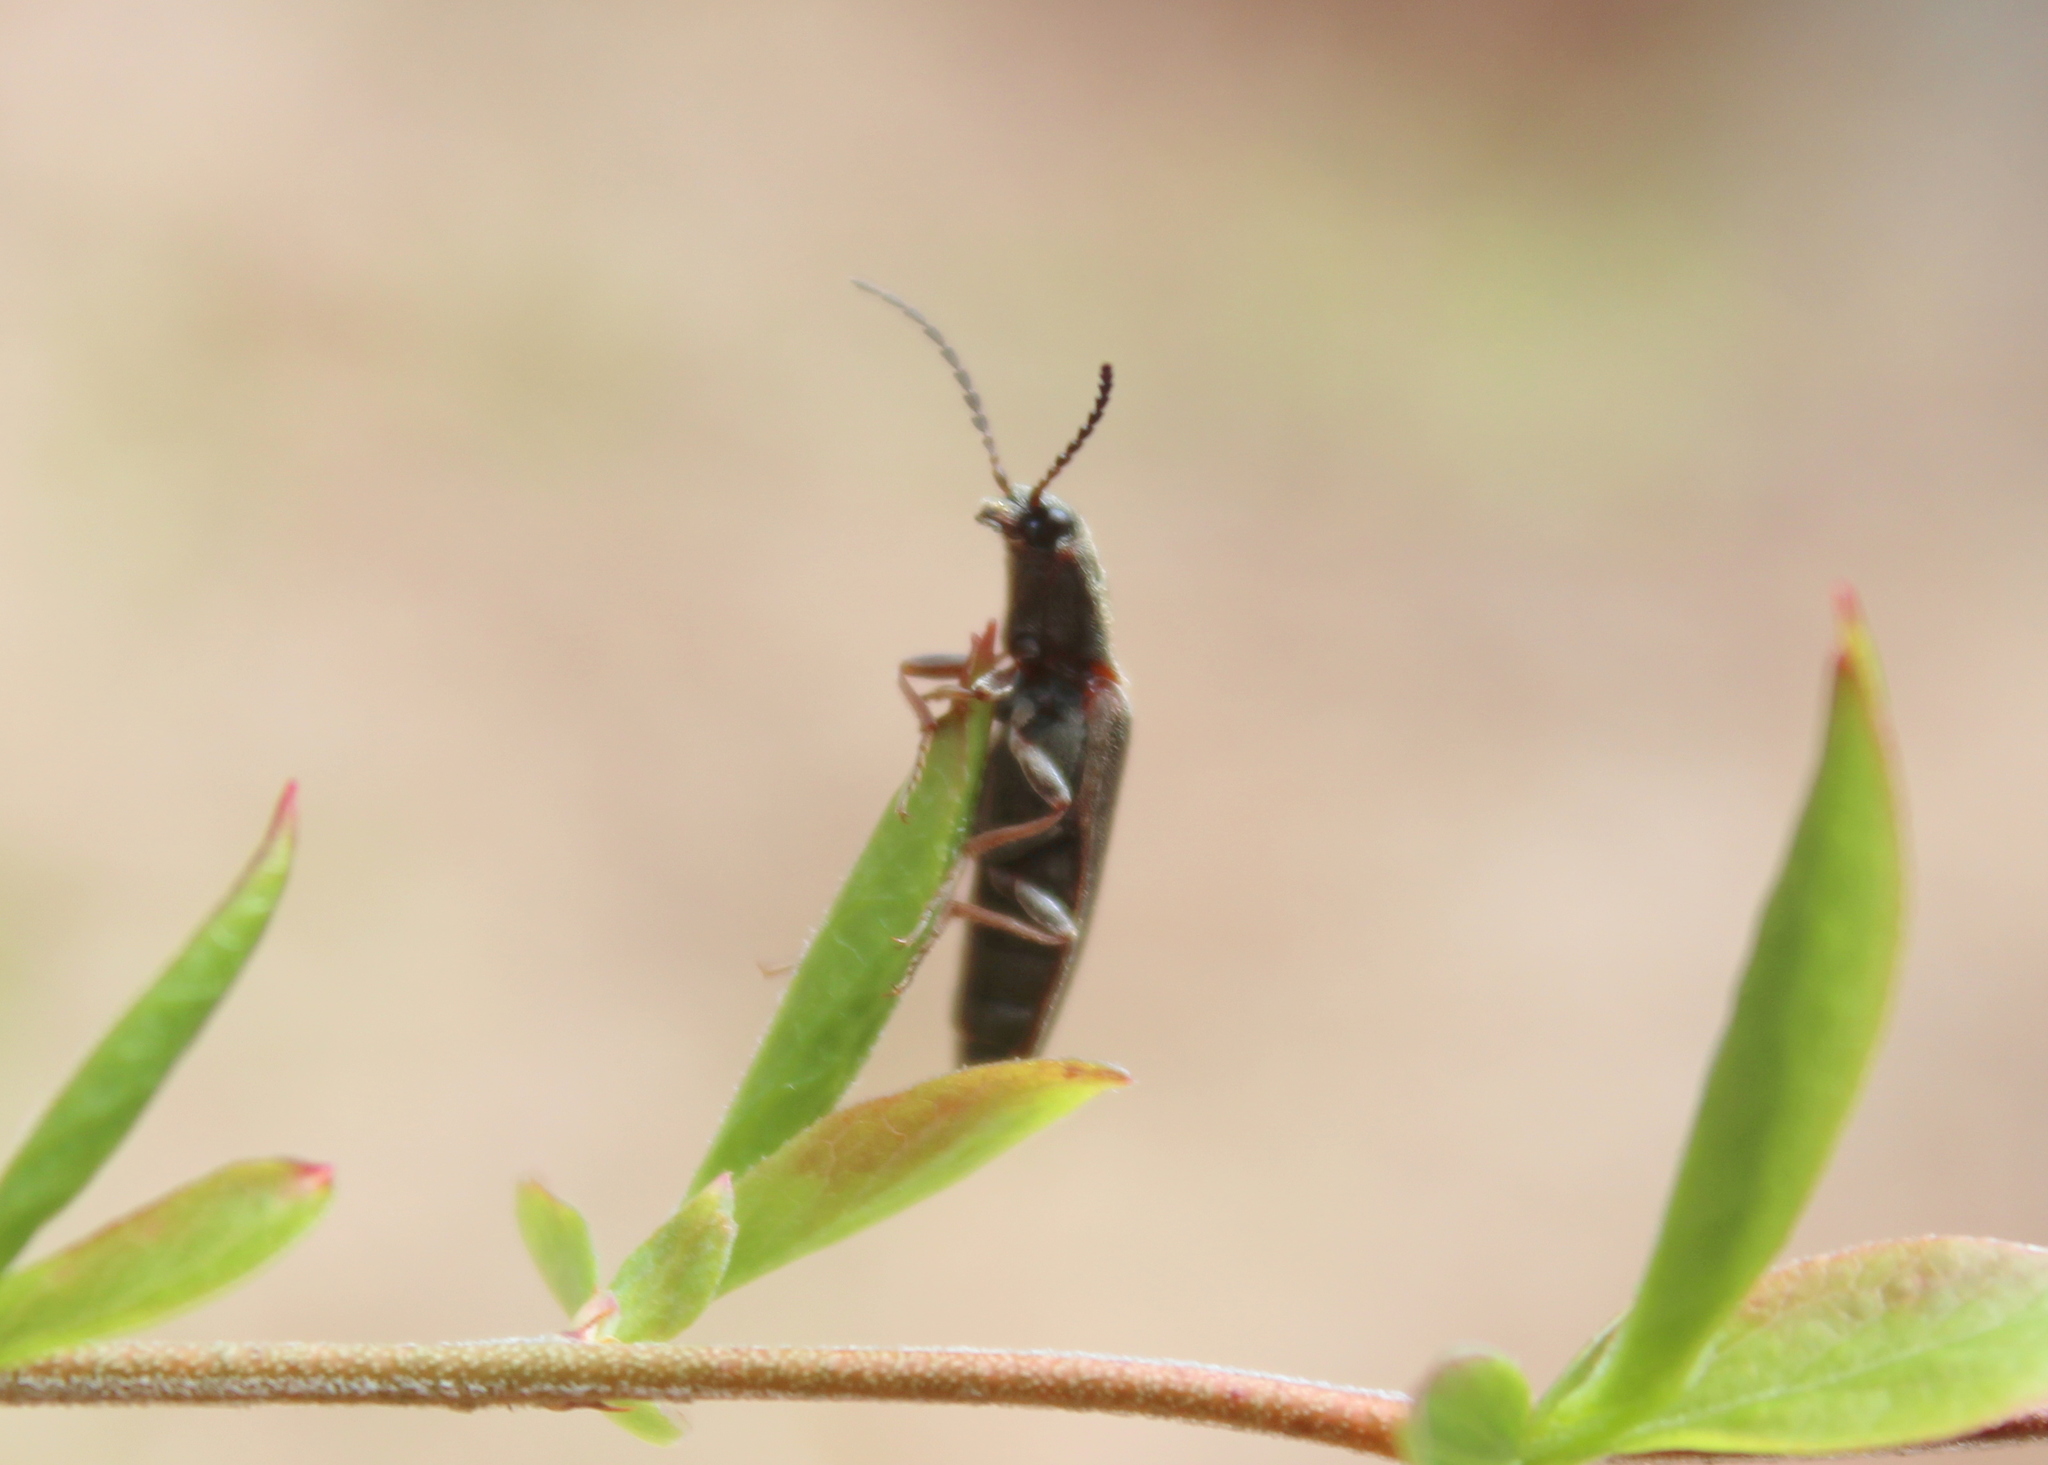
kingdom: Animalia
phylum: Arthropoda
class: Insecta
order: Coleoptera
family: Elateridae
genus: Sylvanelater
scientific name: Sylvanelater cylindriformis
